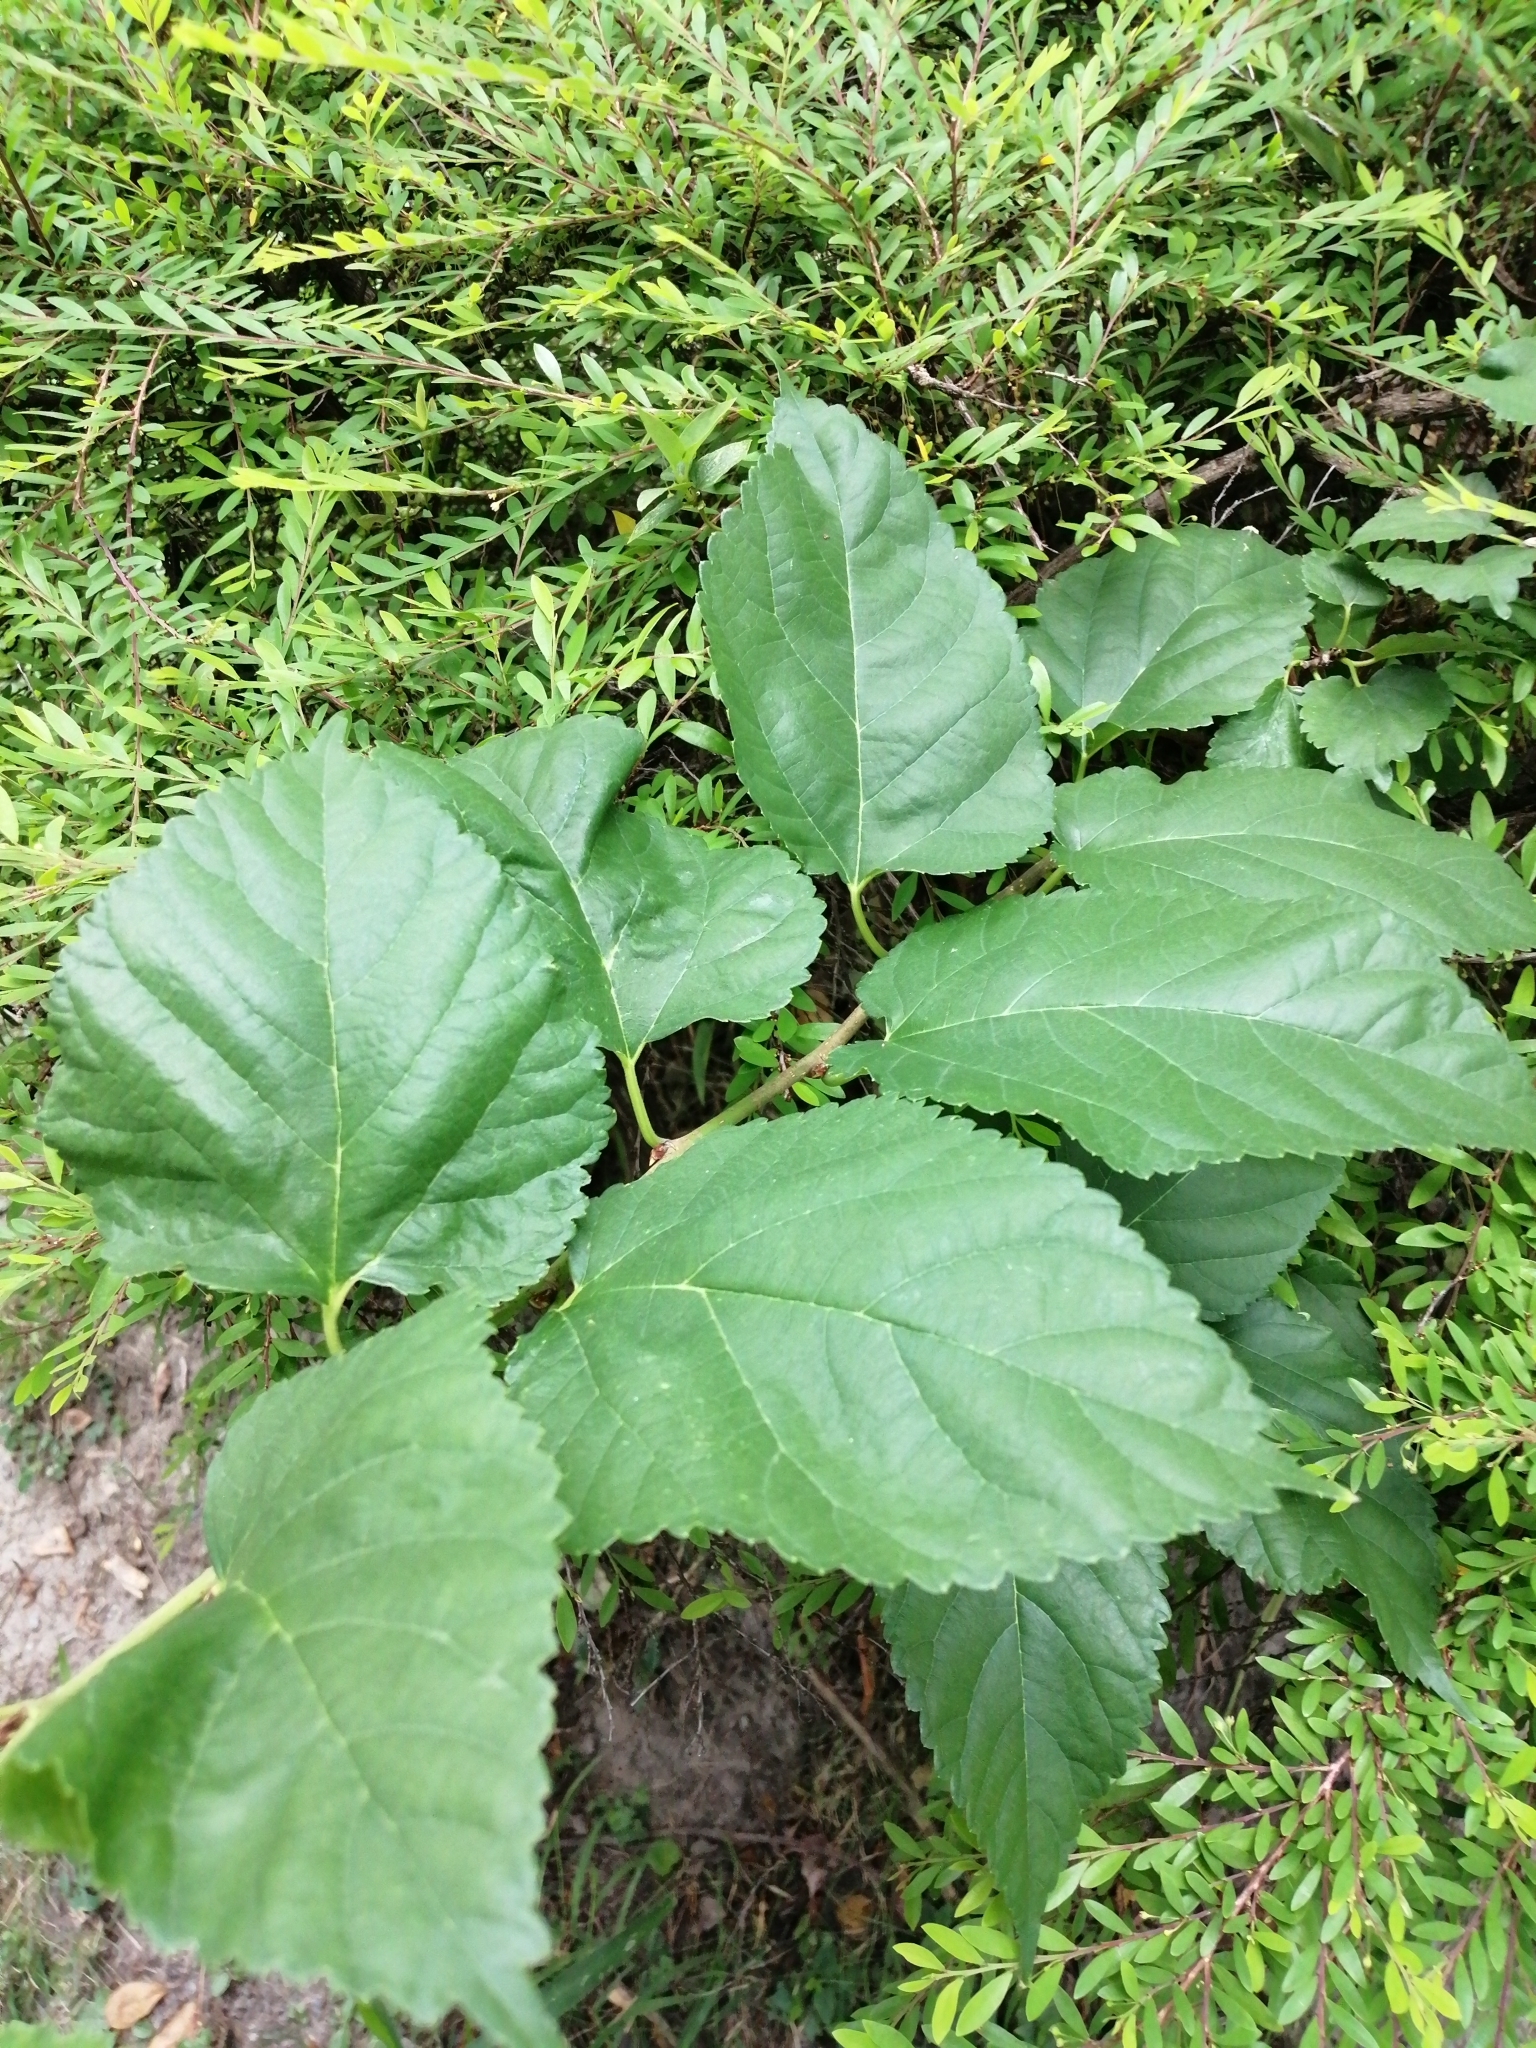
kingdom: Plantae
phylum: Tracheophyta
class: Magnoliopsida
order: Rosales
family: Moraceae
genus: Morus
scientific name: Morus indica
